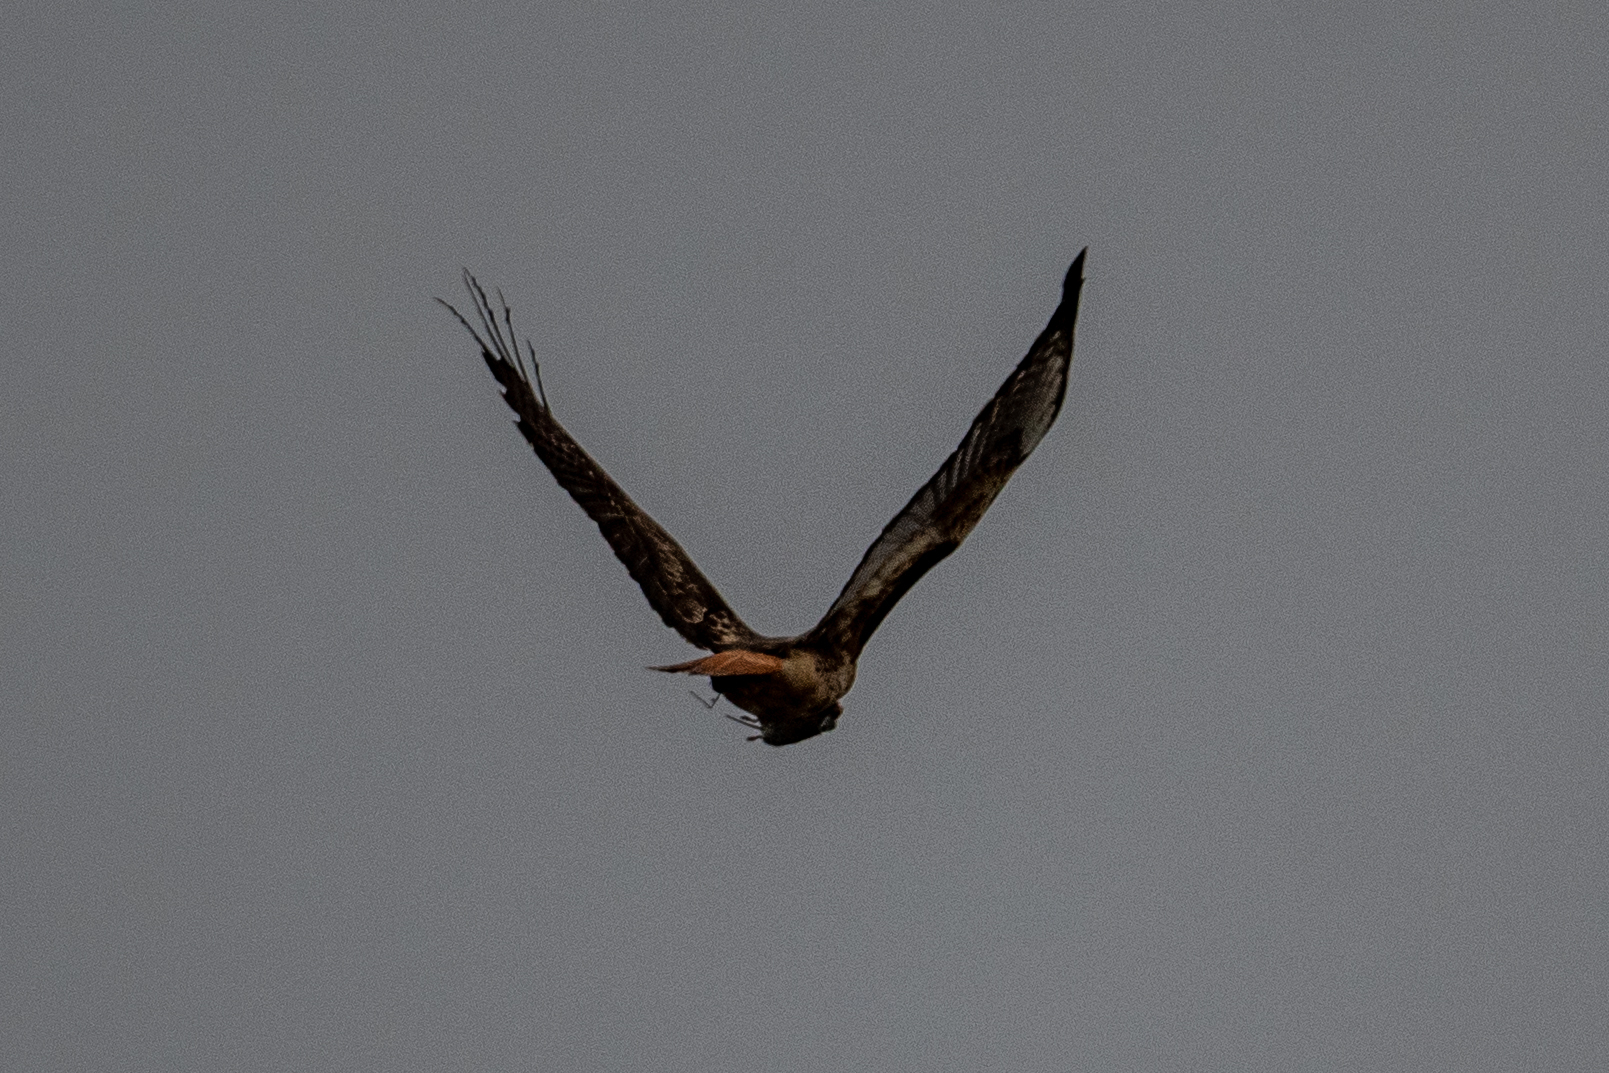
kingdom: Animalia
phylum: Chordata
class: Aves
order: Accipitriformes
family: Accipitridae
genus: Buteo
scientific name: Buteo jamaicensis
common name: Red-tailed hawk
